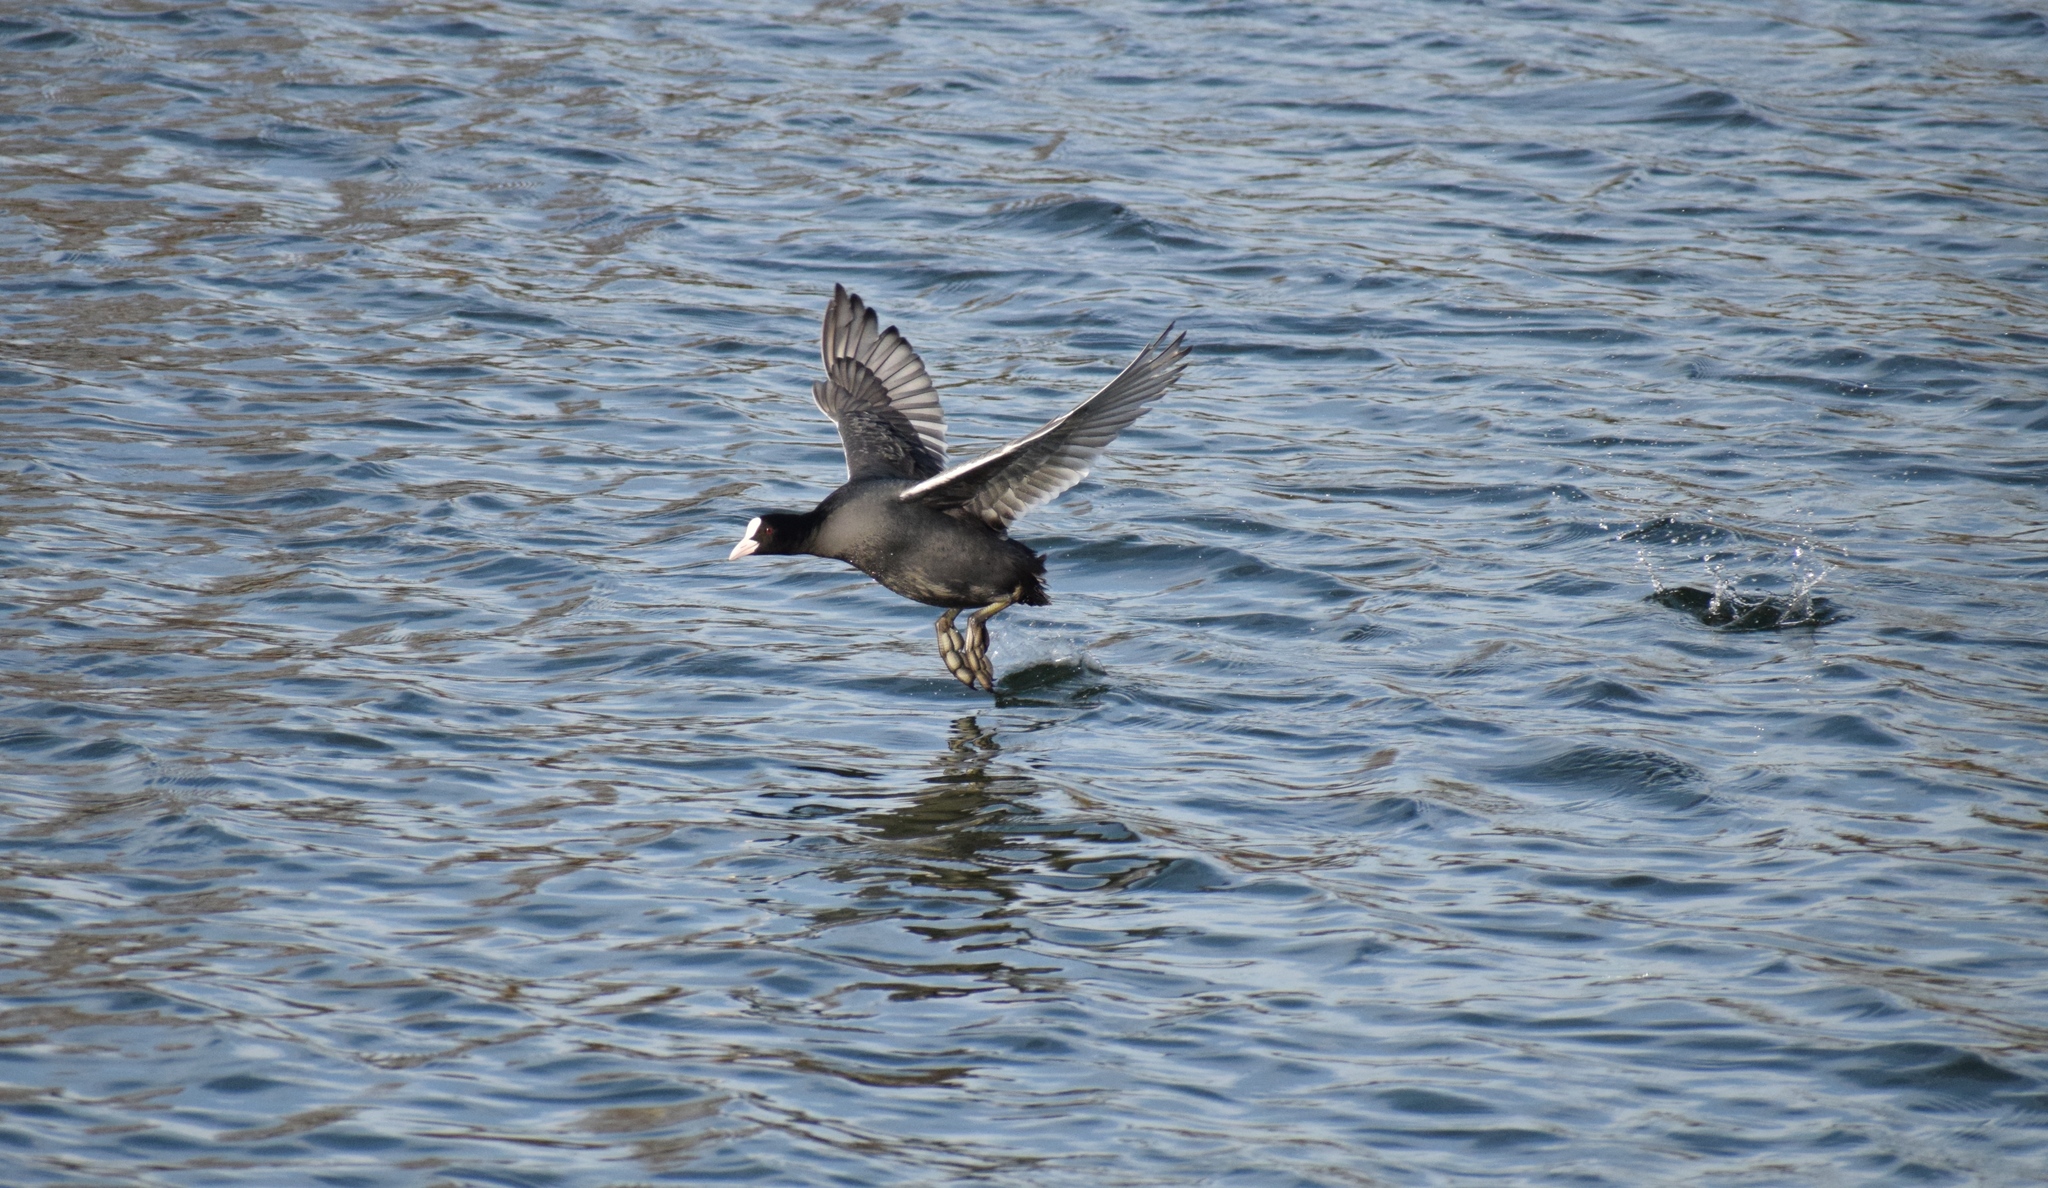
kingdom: Animalia
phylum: Chordata
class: Aves
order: Gruiformes
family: Rallidae
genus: Fulica
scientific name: Fulica atra
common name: Eurasian coot
